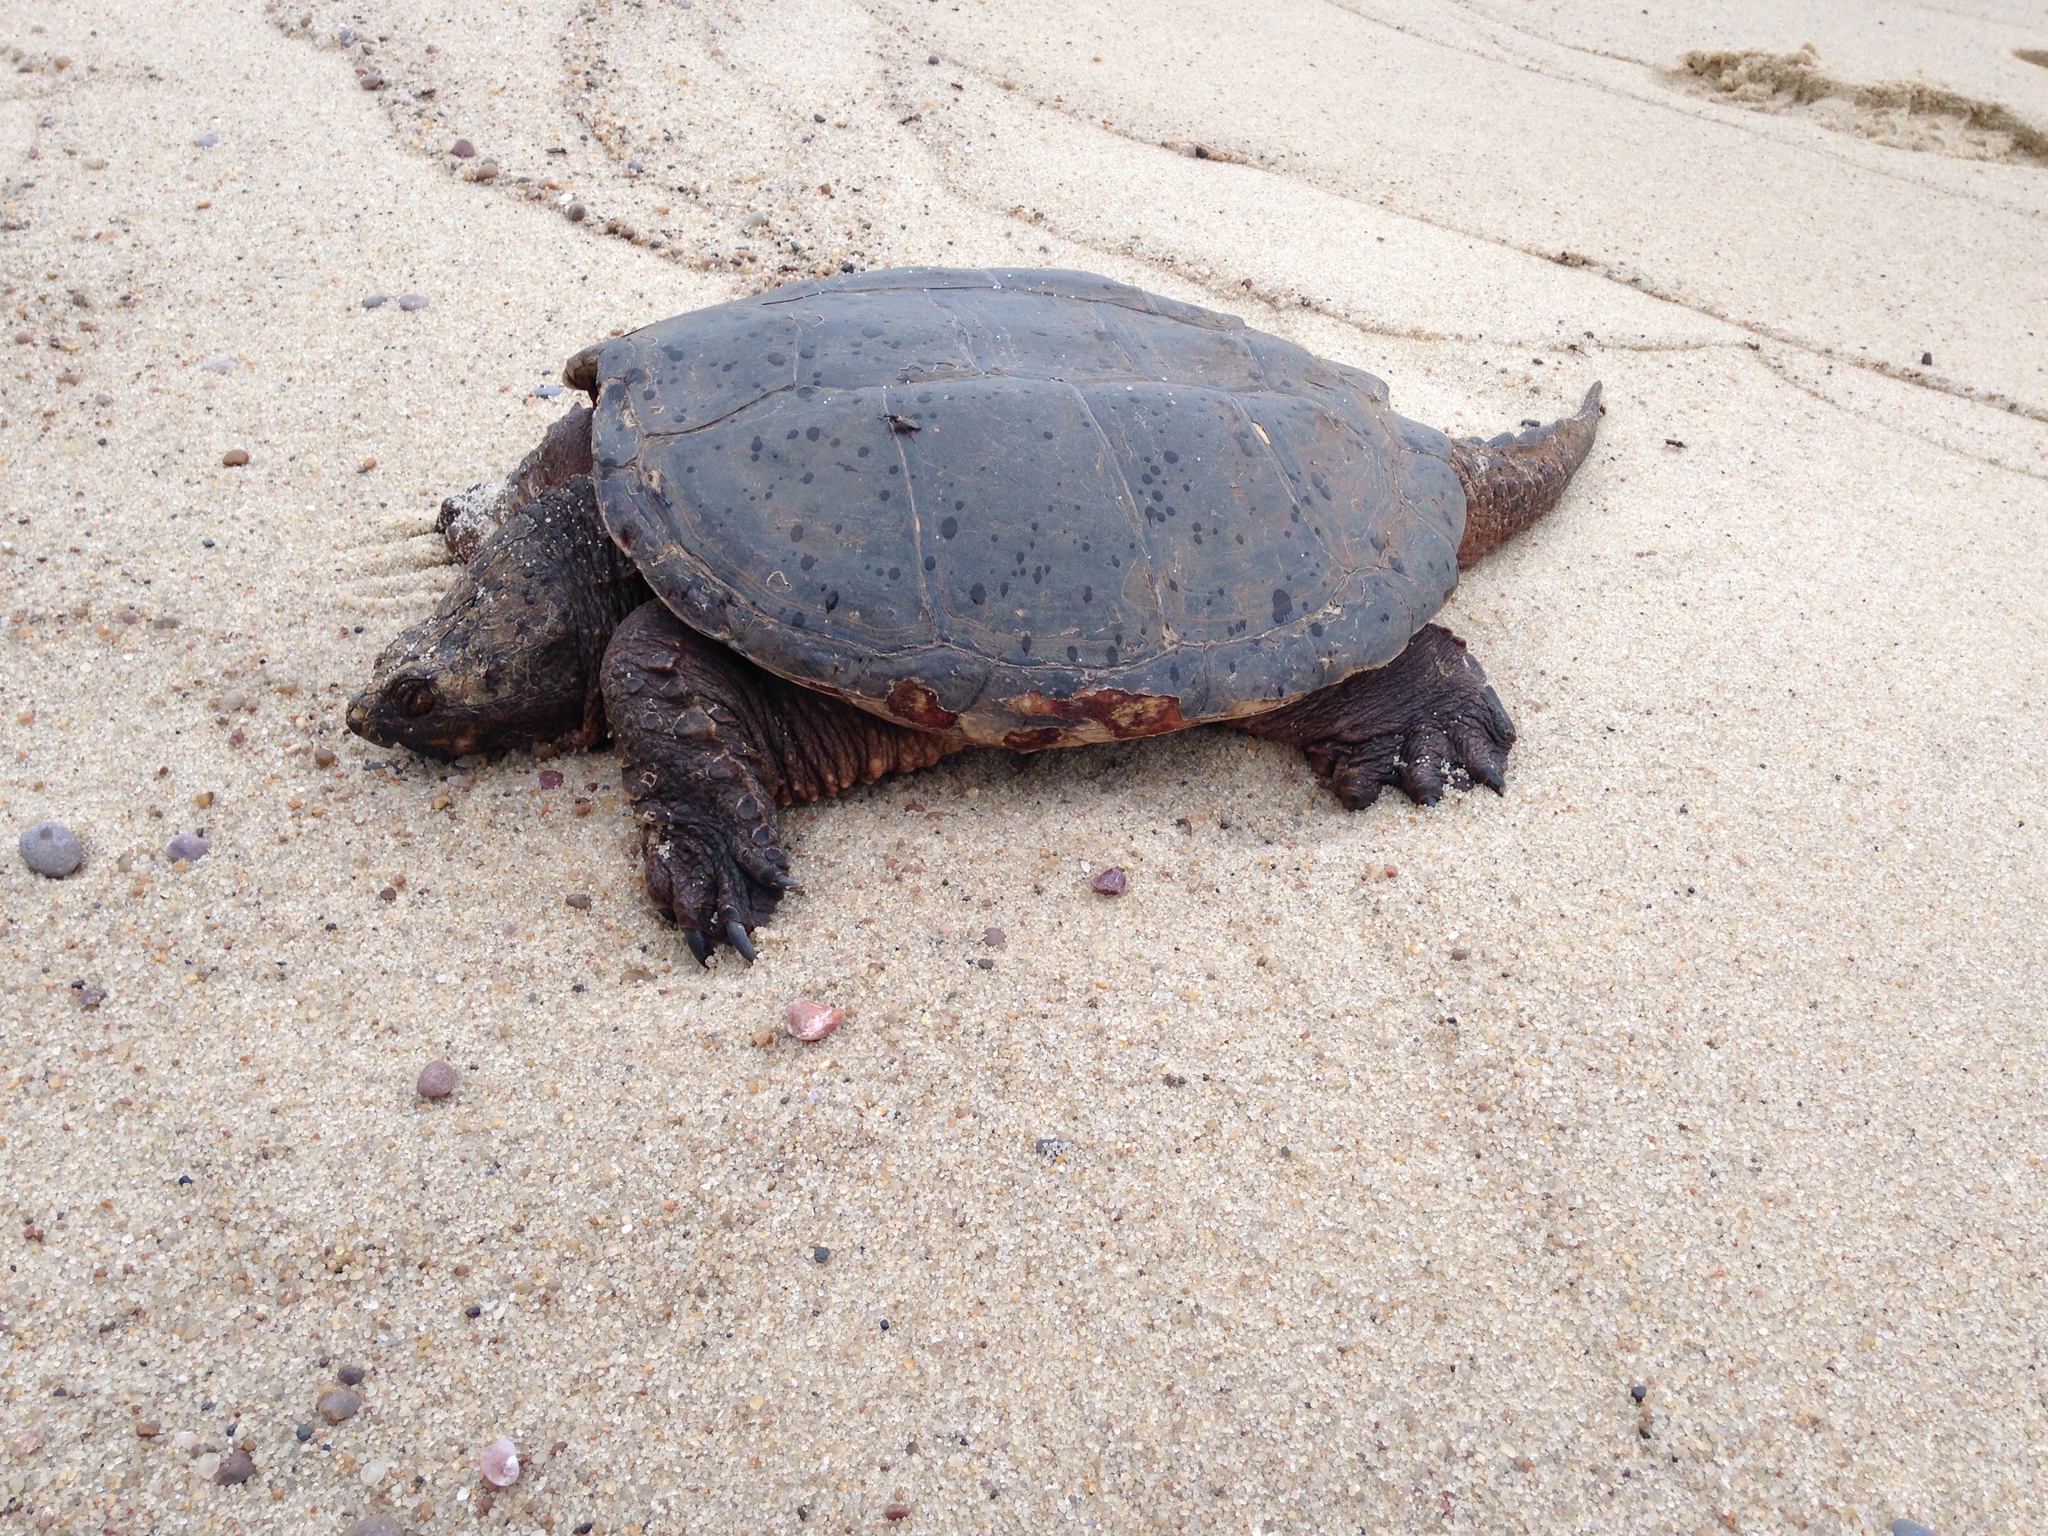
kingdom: Animalia
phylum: Chordata
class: Testudines
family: Chelydridae
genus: Chelydra
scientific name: Chelydra serpentina
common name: Common snapping turtle
